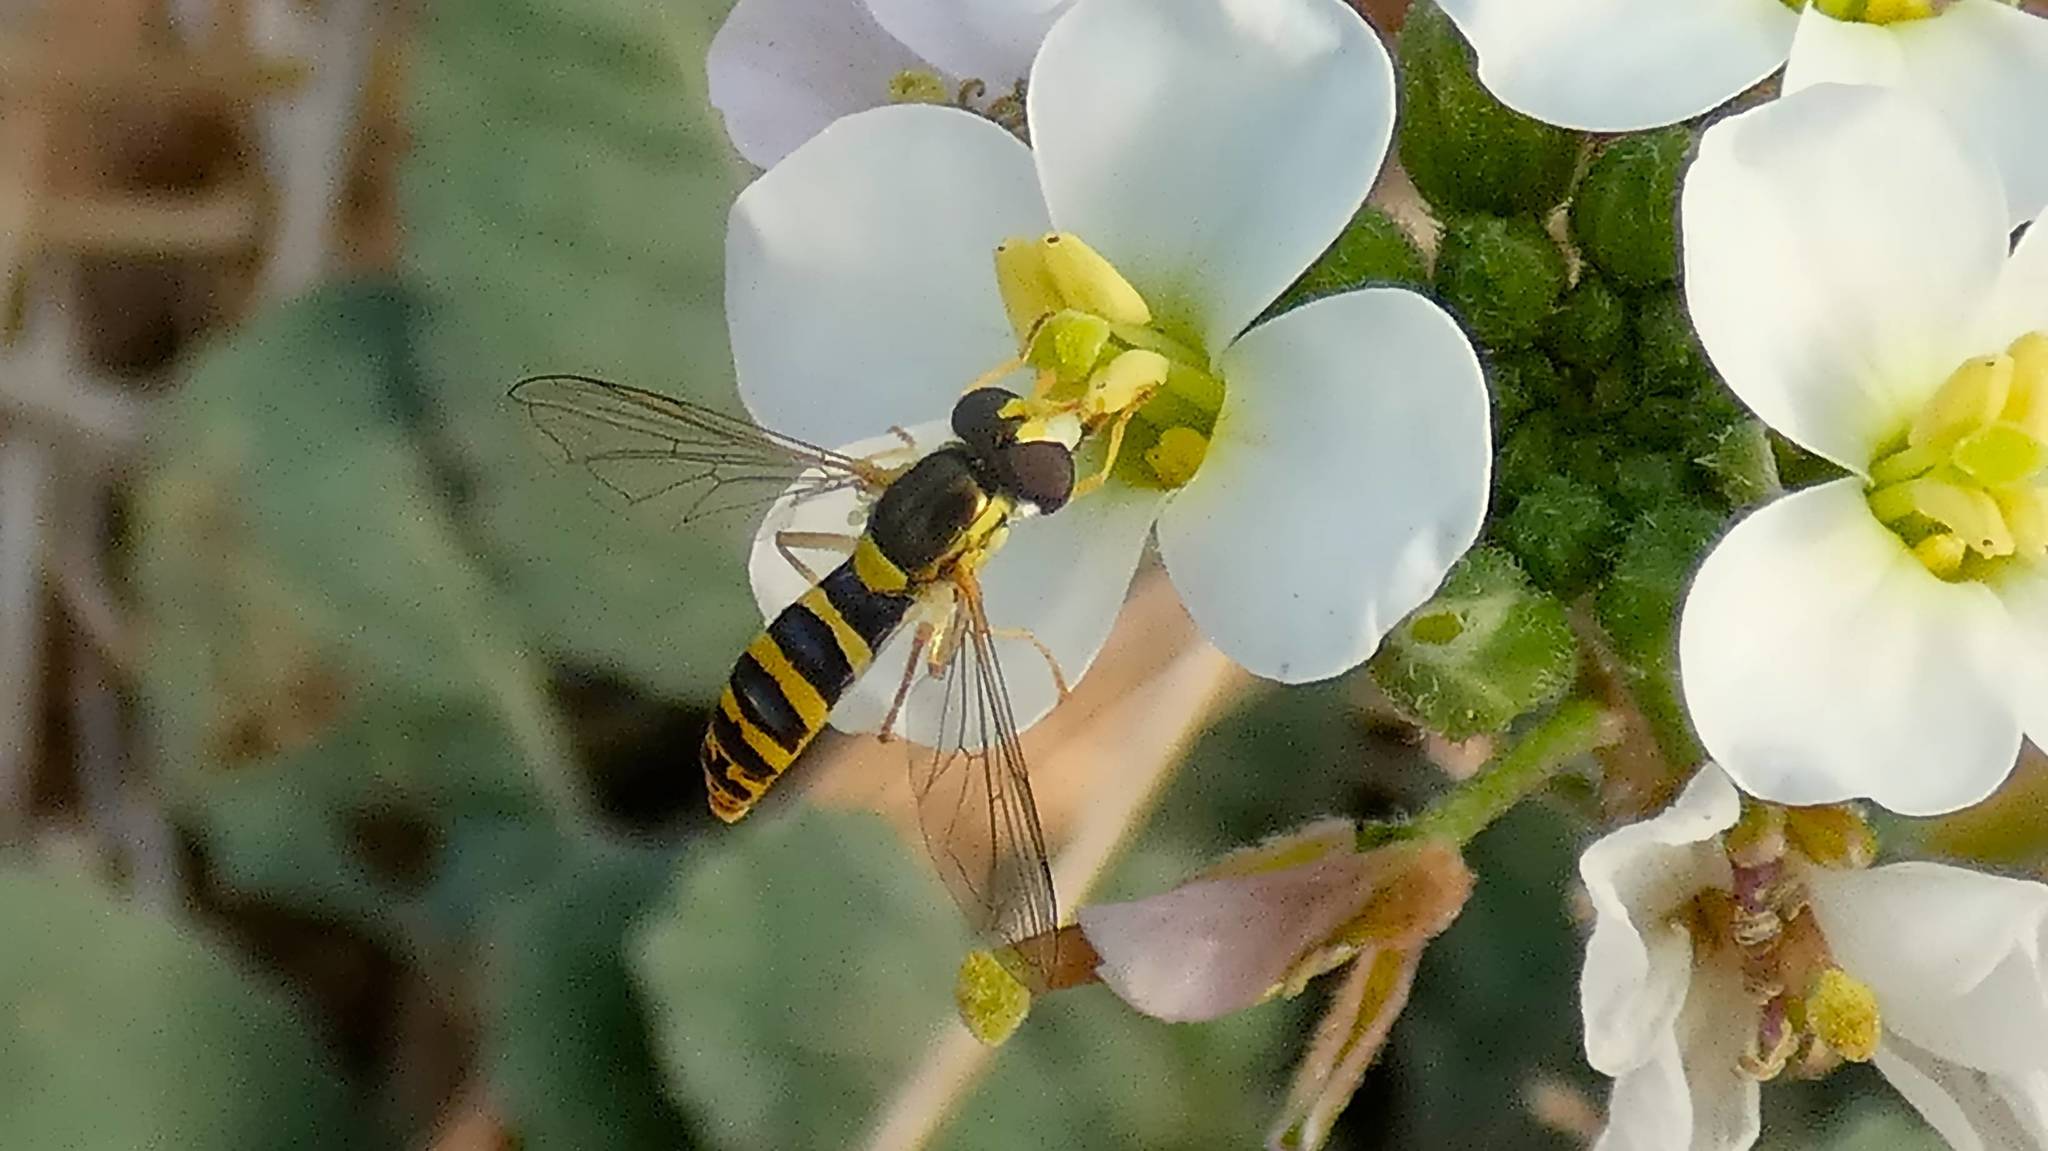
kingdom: Animalia
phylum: Arthropoda
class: Insecta
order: Diptera
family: Syrphidae
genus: Sphaerophoria
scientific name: Sphaerophoria scripta
